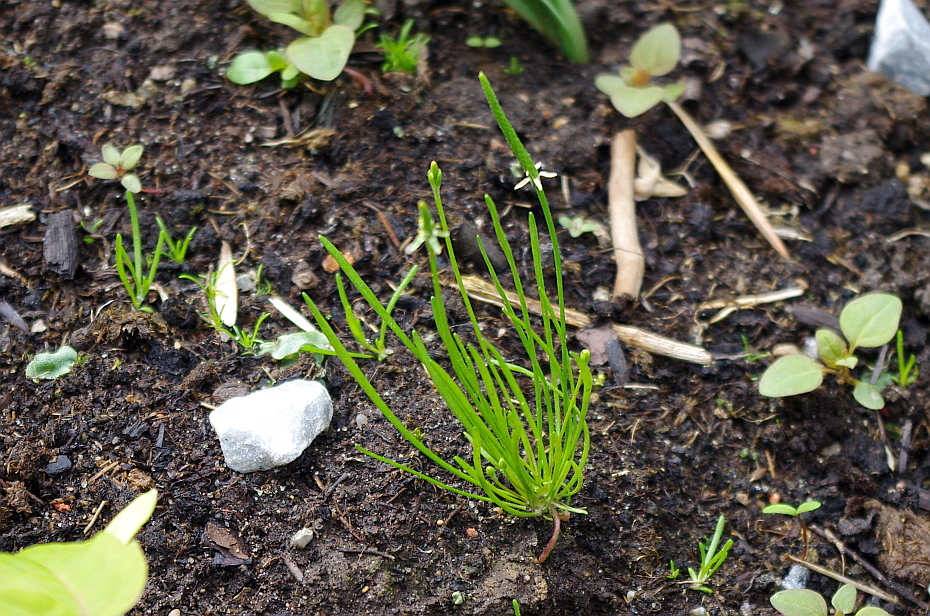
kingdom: Plantae
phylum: Tracheophyta
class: Magnoliopsida
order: Ranunculales
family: Ranunculaceae
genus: Myosurus
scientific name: Myosurus minimus
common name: Mousetail
